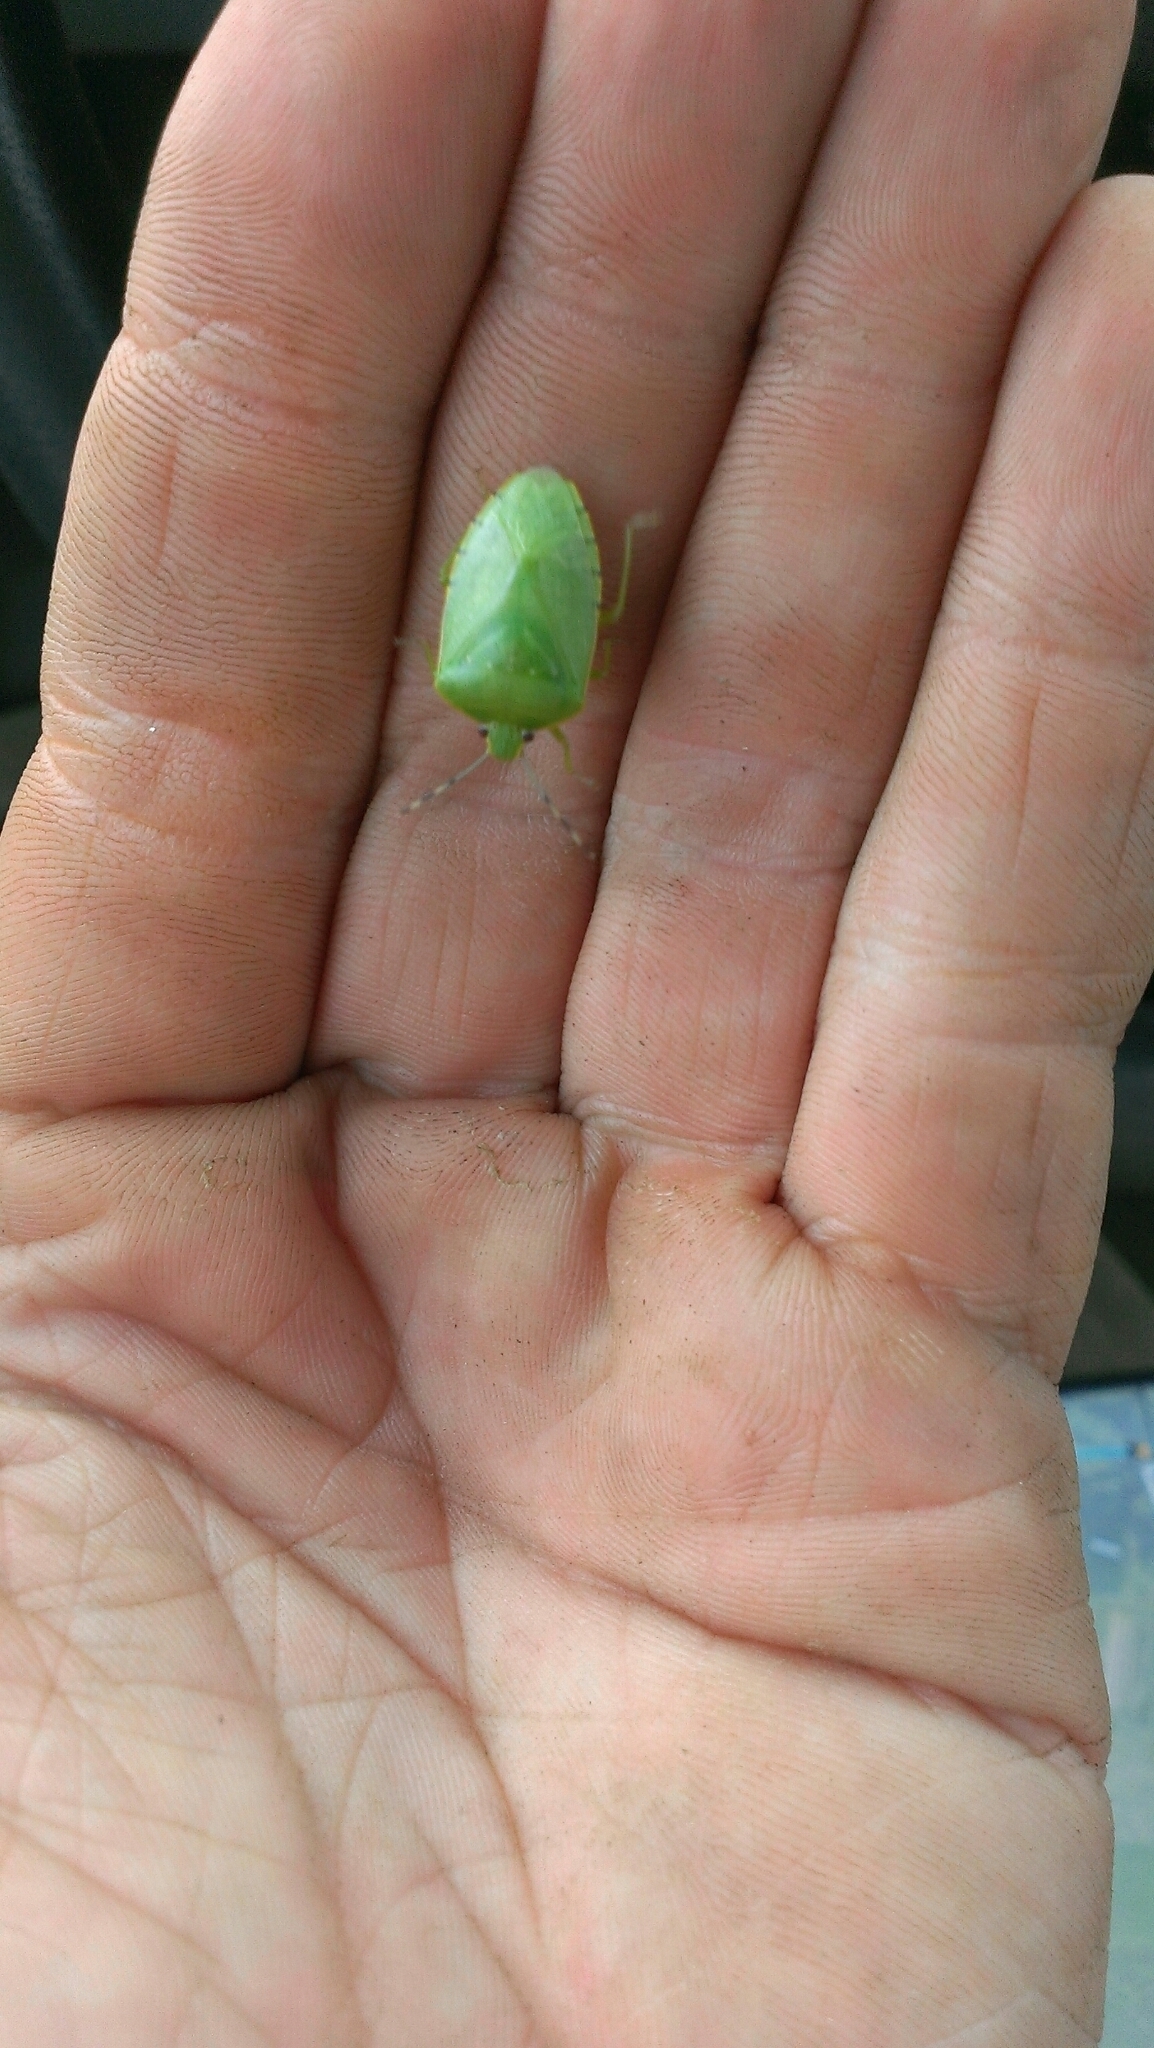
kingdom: Animalia
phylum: Arthropoda
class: Insecta
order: Hemiptera
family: Pentatomidae
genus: Chinavia
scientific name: Chinavia hilaris
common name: Green stink bug
